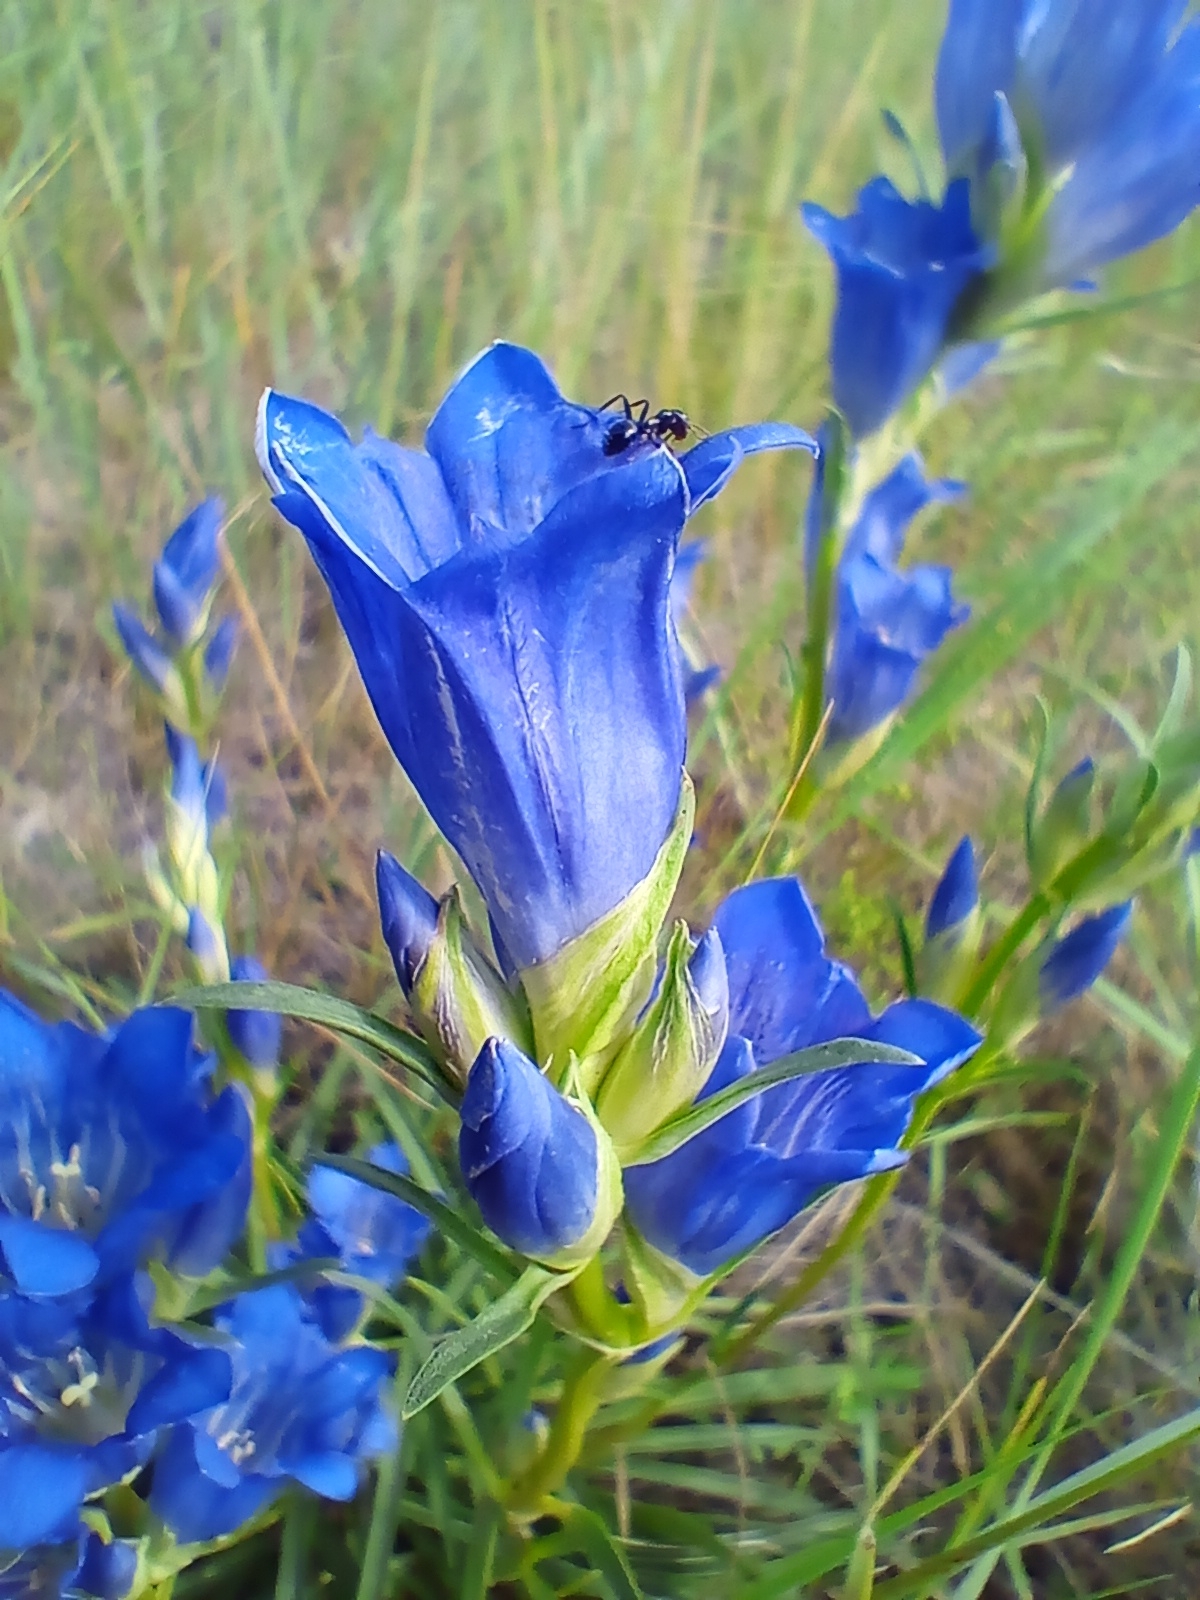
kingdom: Plantae
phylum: Tracheophyta
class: Magnoliopsida
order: Gentianales
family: Gentianaceae
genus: Gentiana
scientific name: Gentiana decumbens
